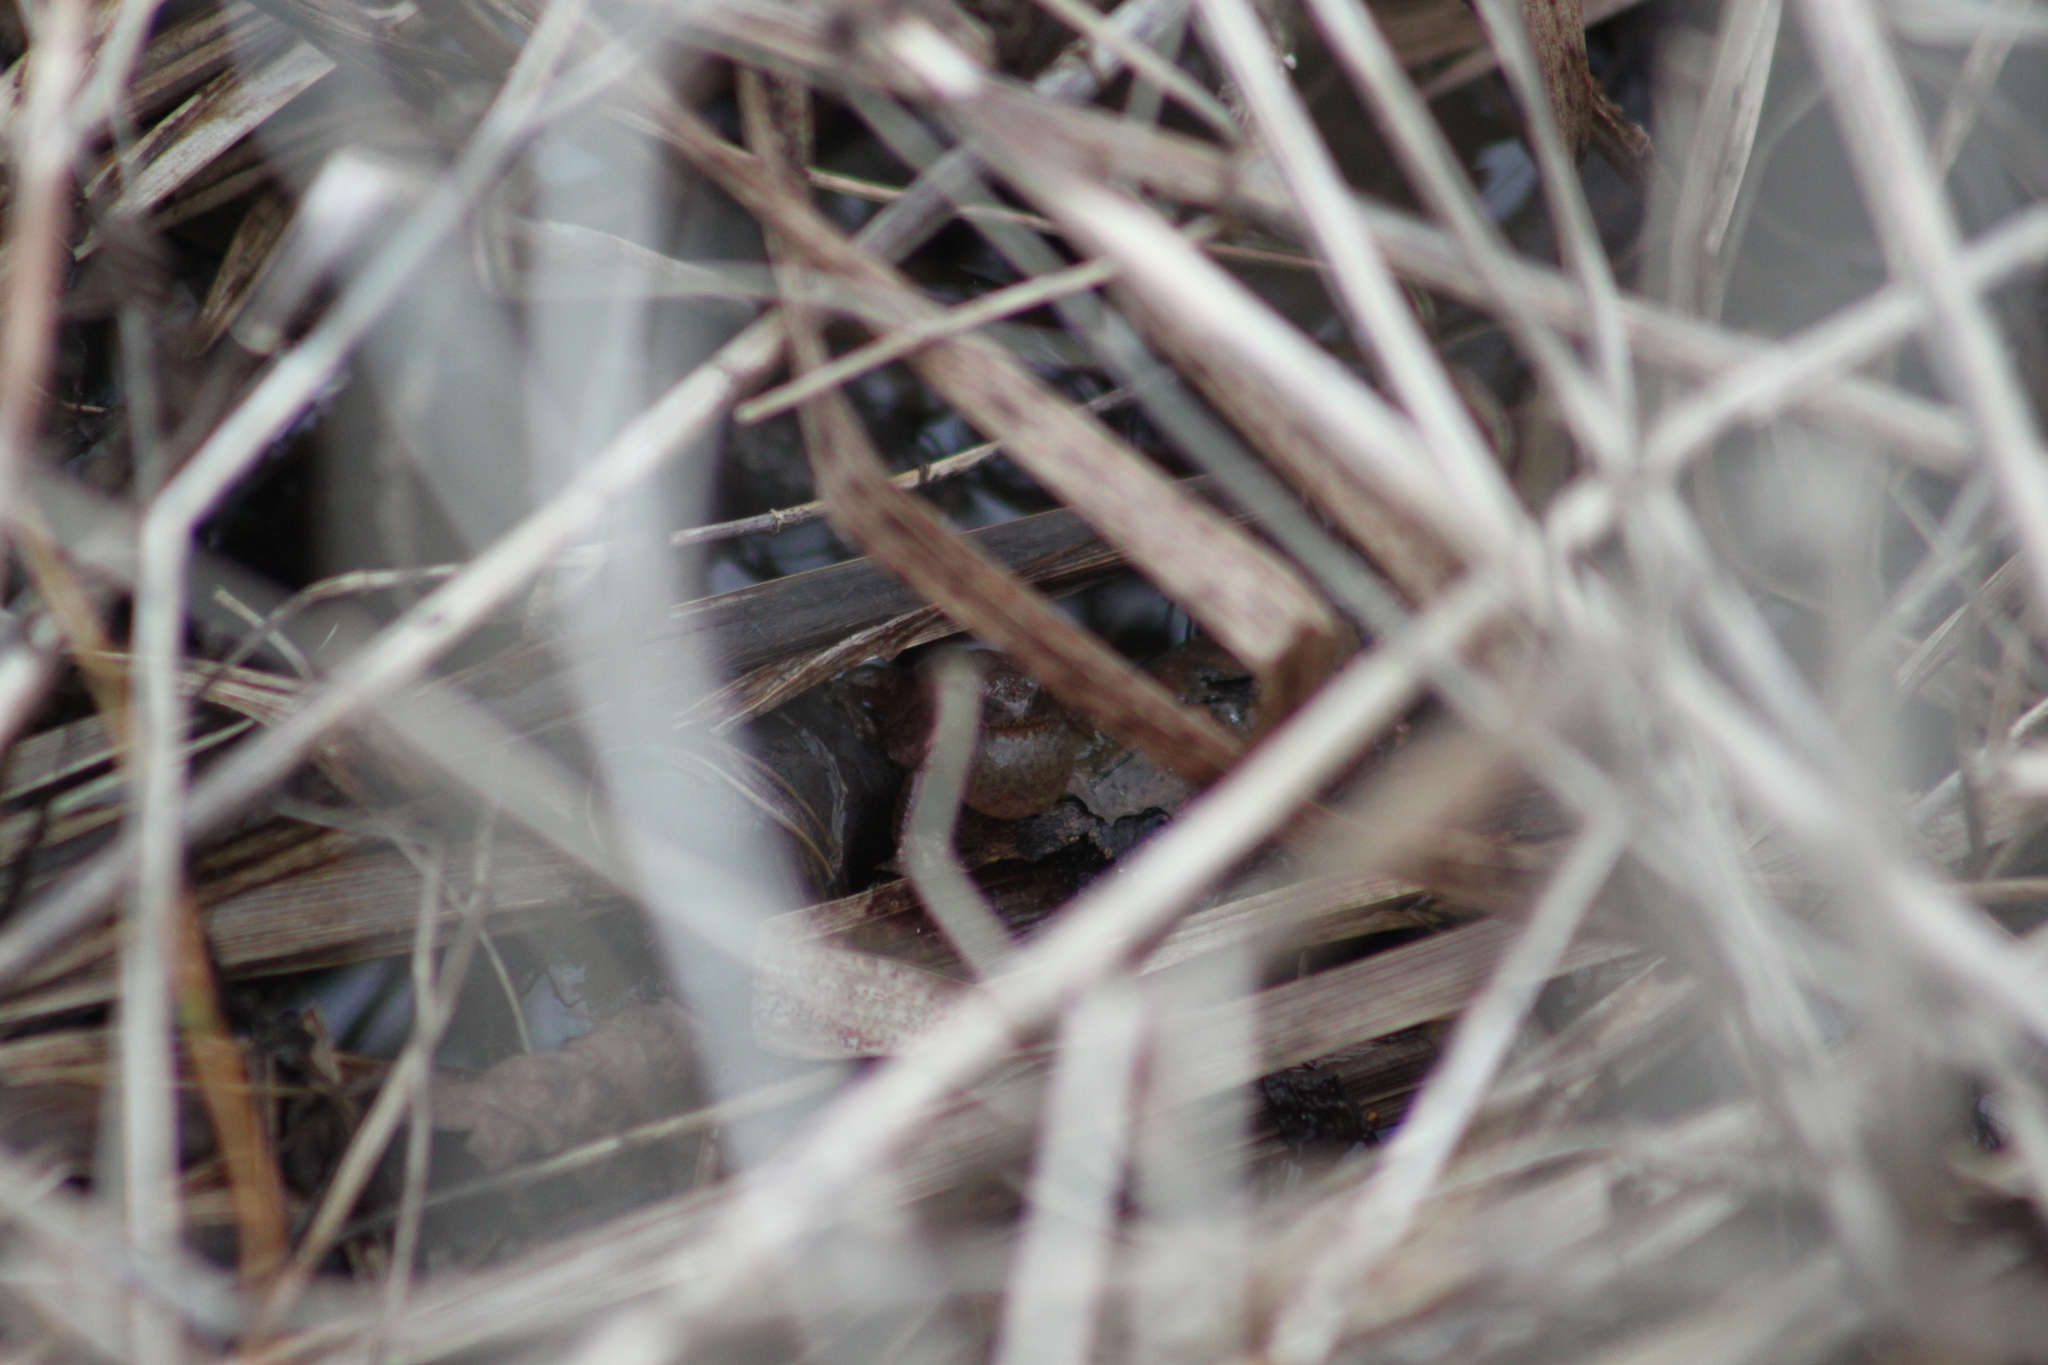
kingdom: Animalia
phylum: Chordata
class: Amphibia
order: Anura
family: Hylidae
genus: Pseudacris
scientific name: Pseudacris crucifer
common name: Spring peeper
